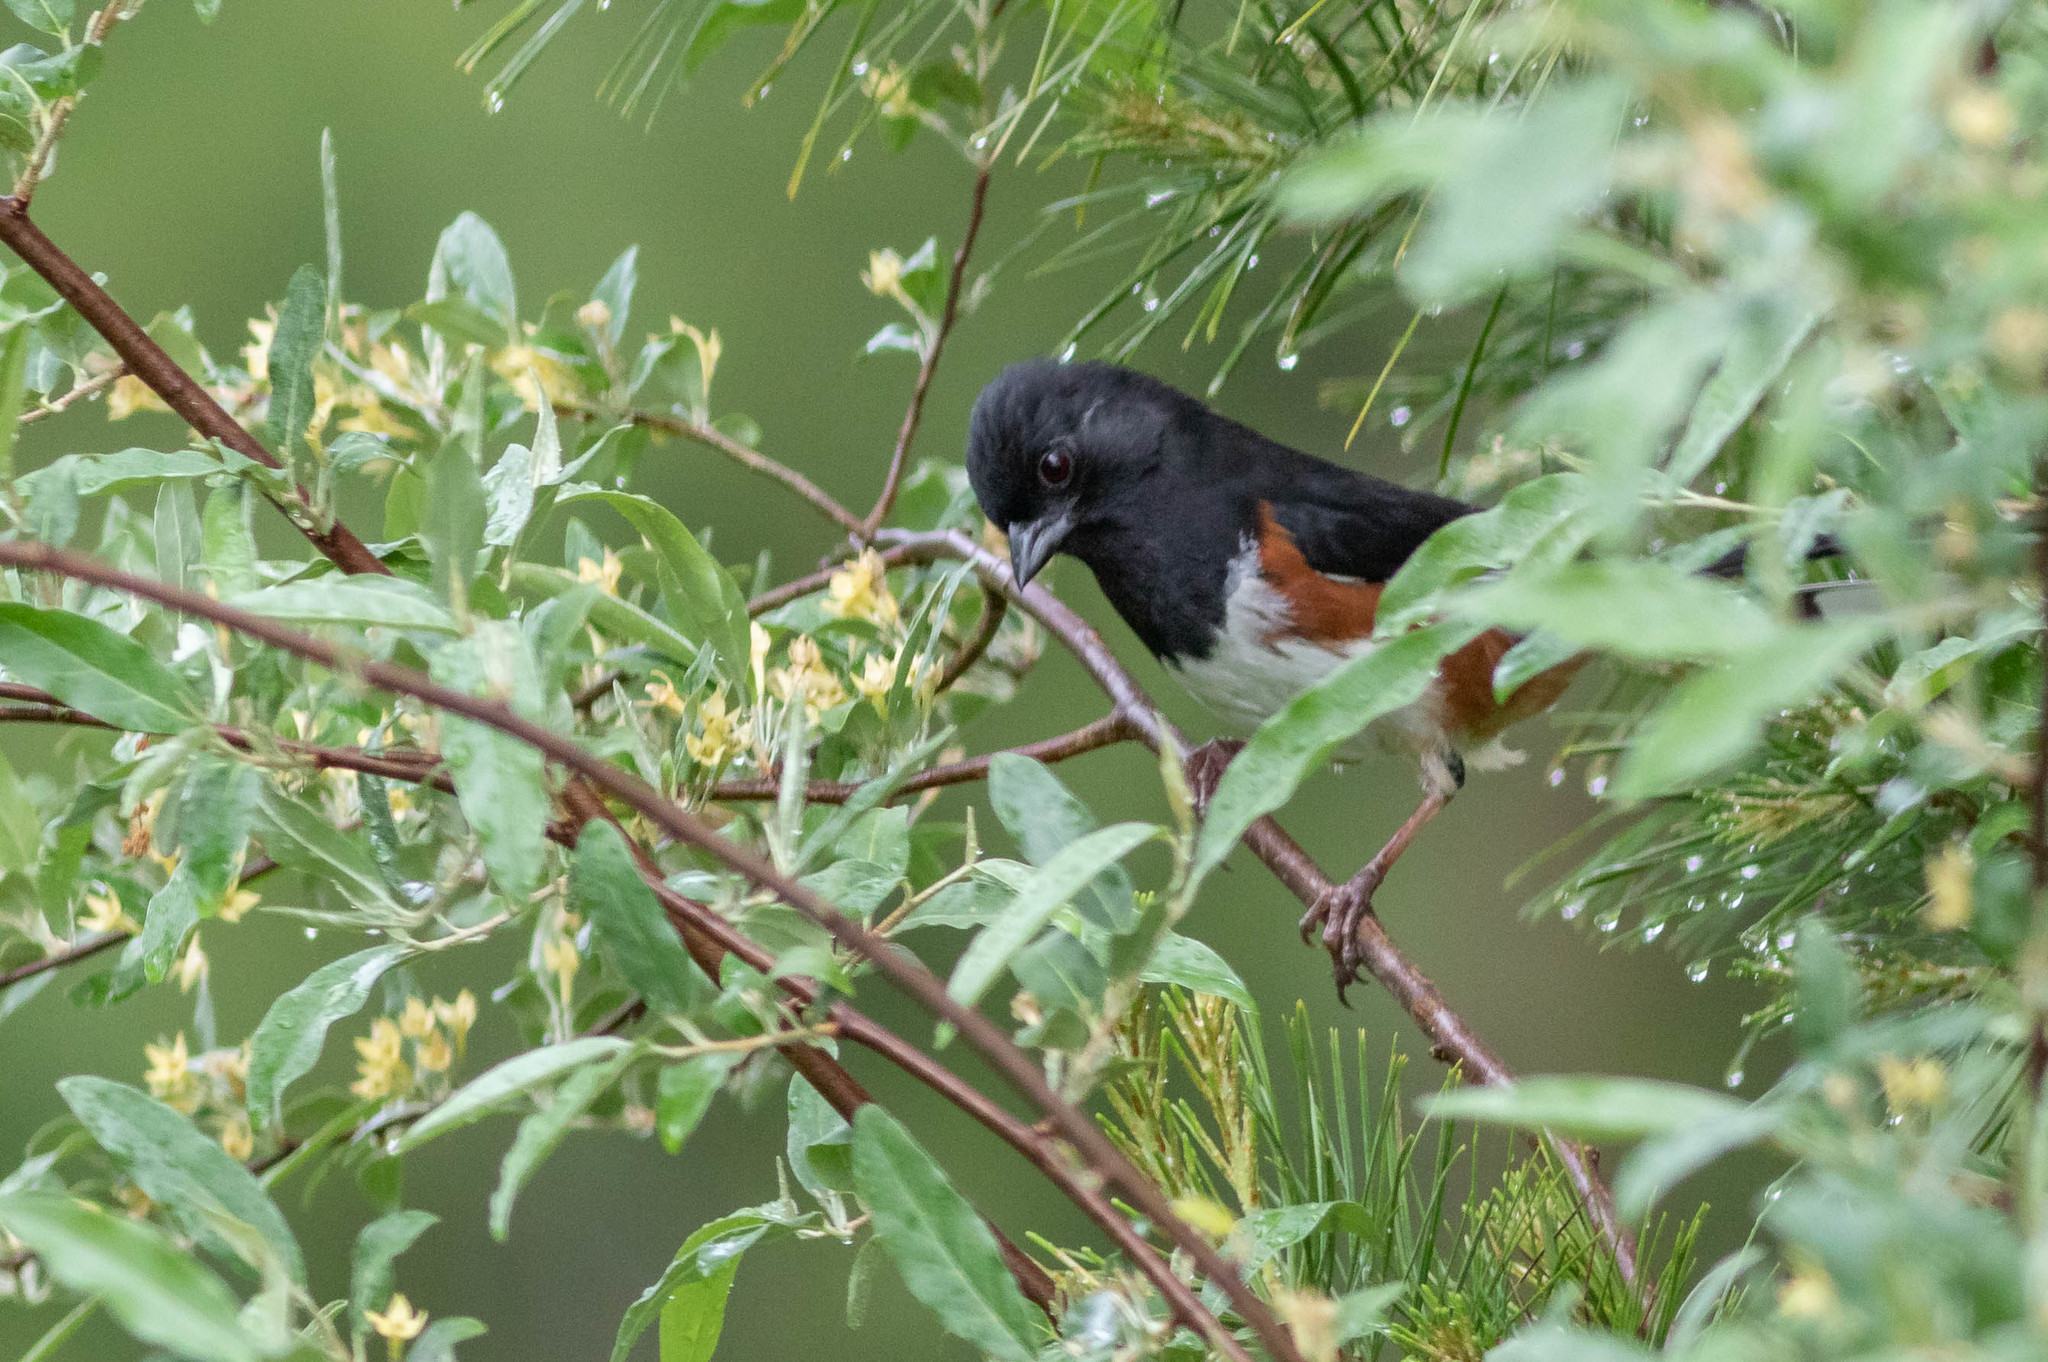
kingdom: Animalia
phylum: Chordata
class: Aves
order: Passeriformes
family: Passerellidae
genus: Pipilo
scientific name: Pipilo erythrophthalmus
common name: Eastern towhee
